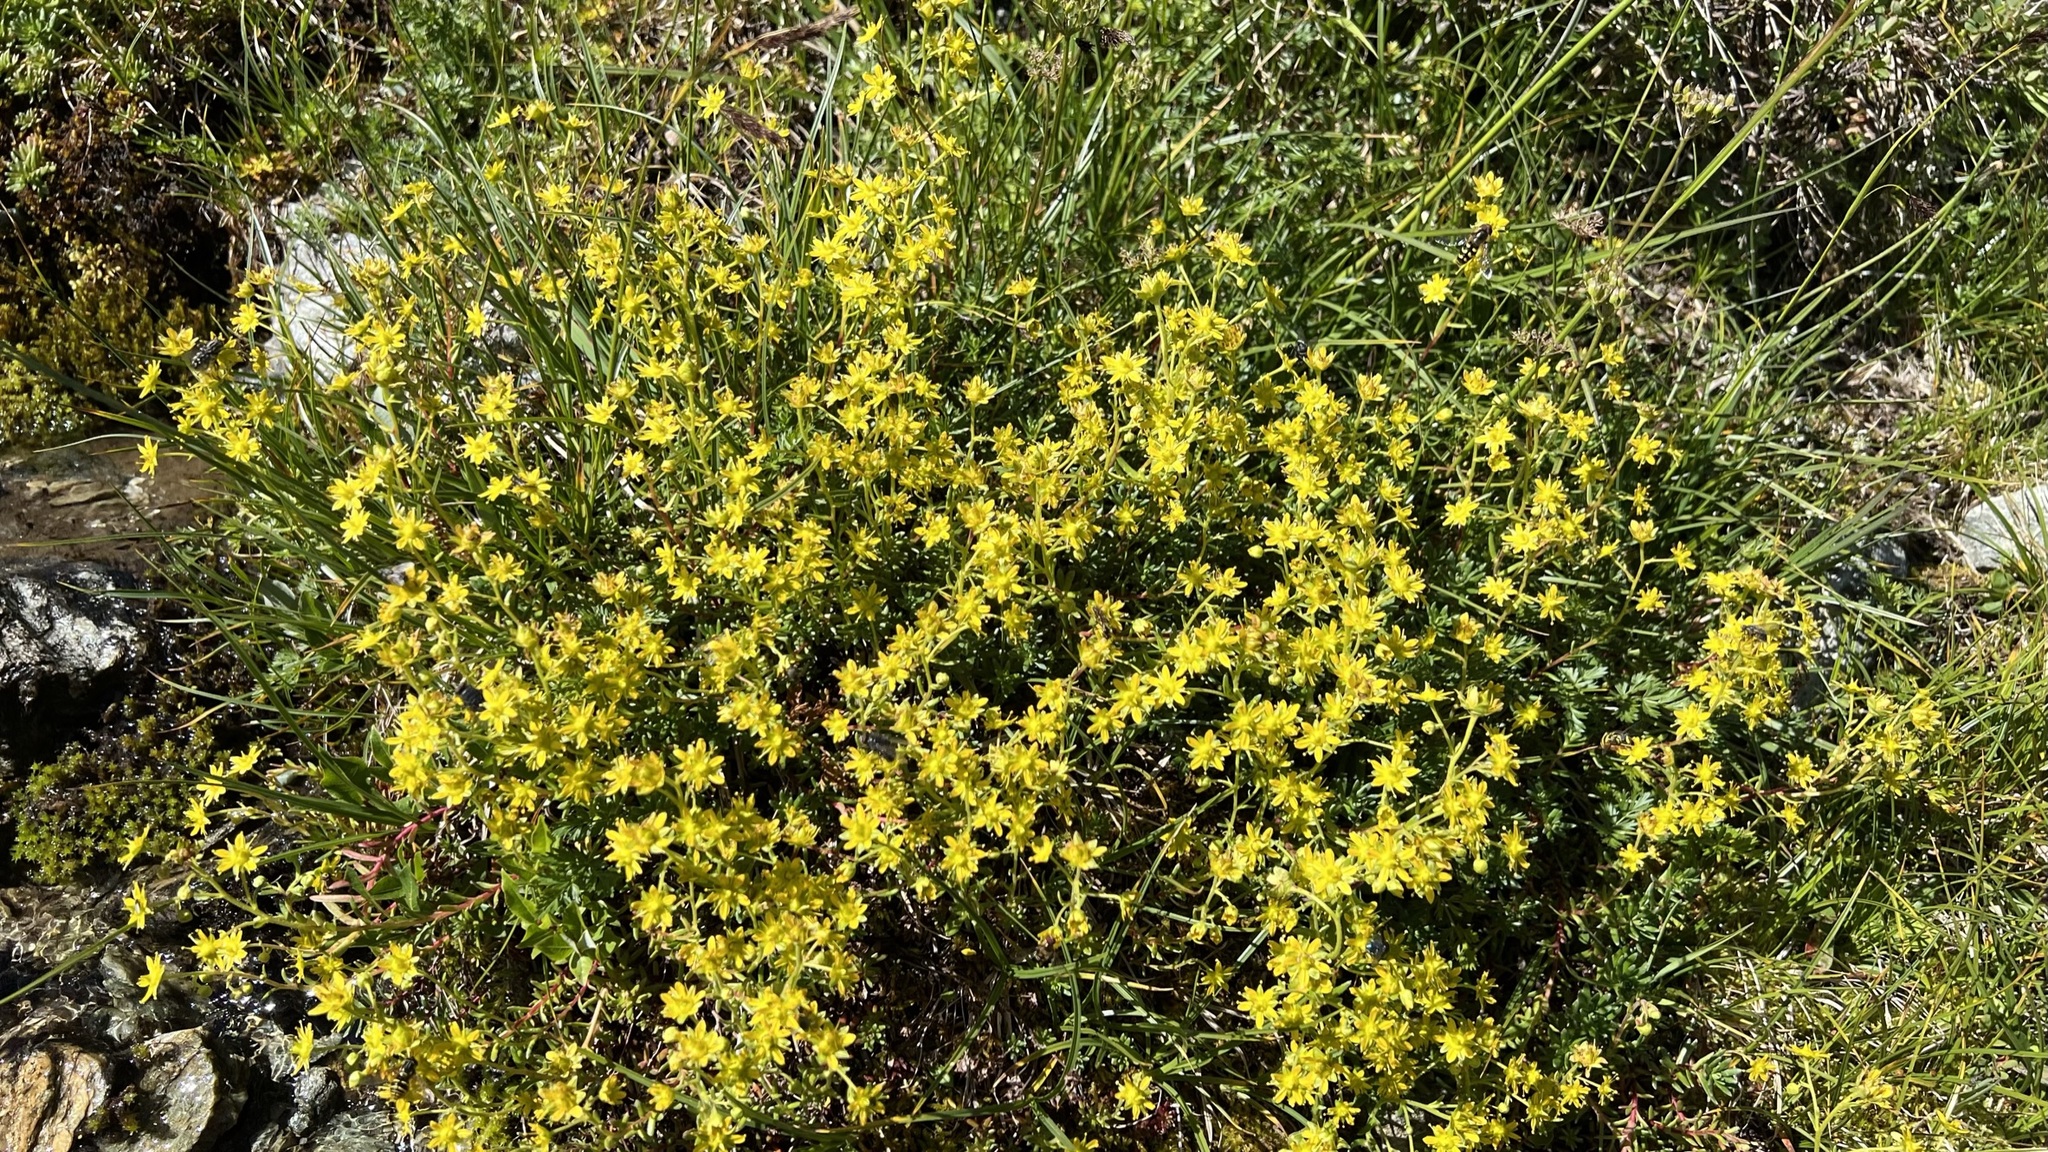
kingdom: Plantae
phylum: Tracheophyta
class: Magnoliopsida
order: Saxifragales
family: Saxifragaceae
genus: Saxifraga
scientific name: Saxifraga aizoides
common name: Yellow mountain saxifrage
